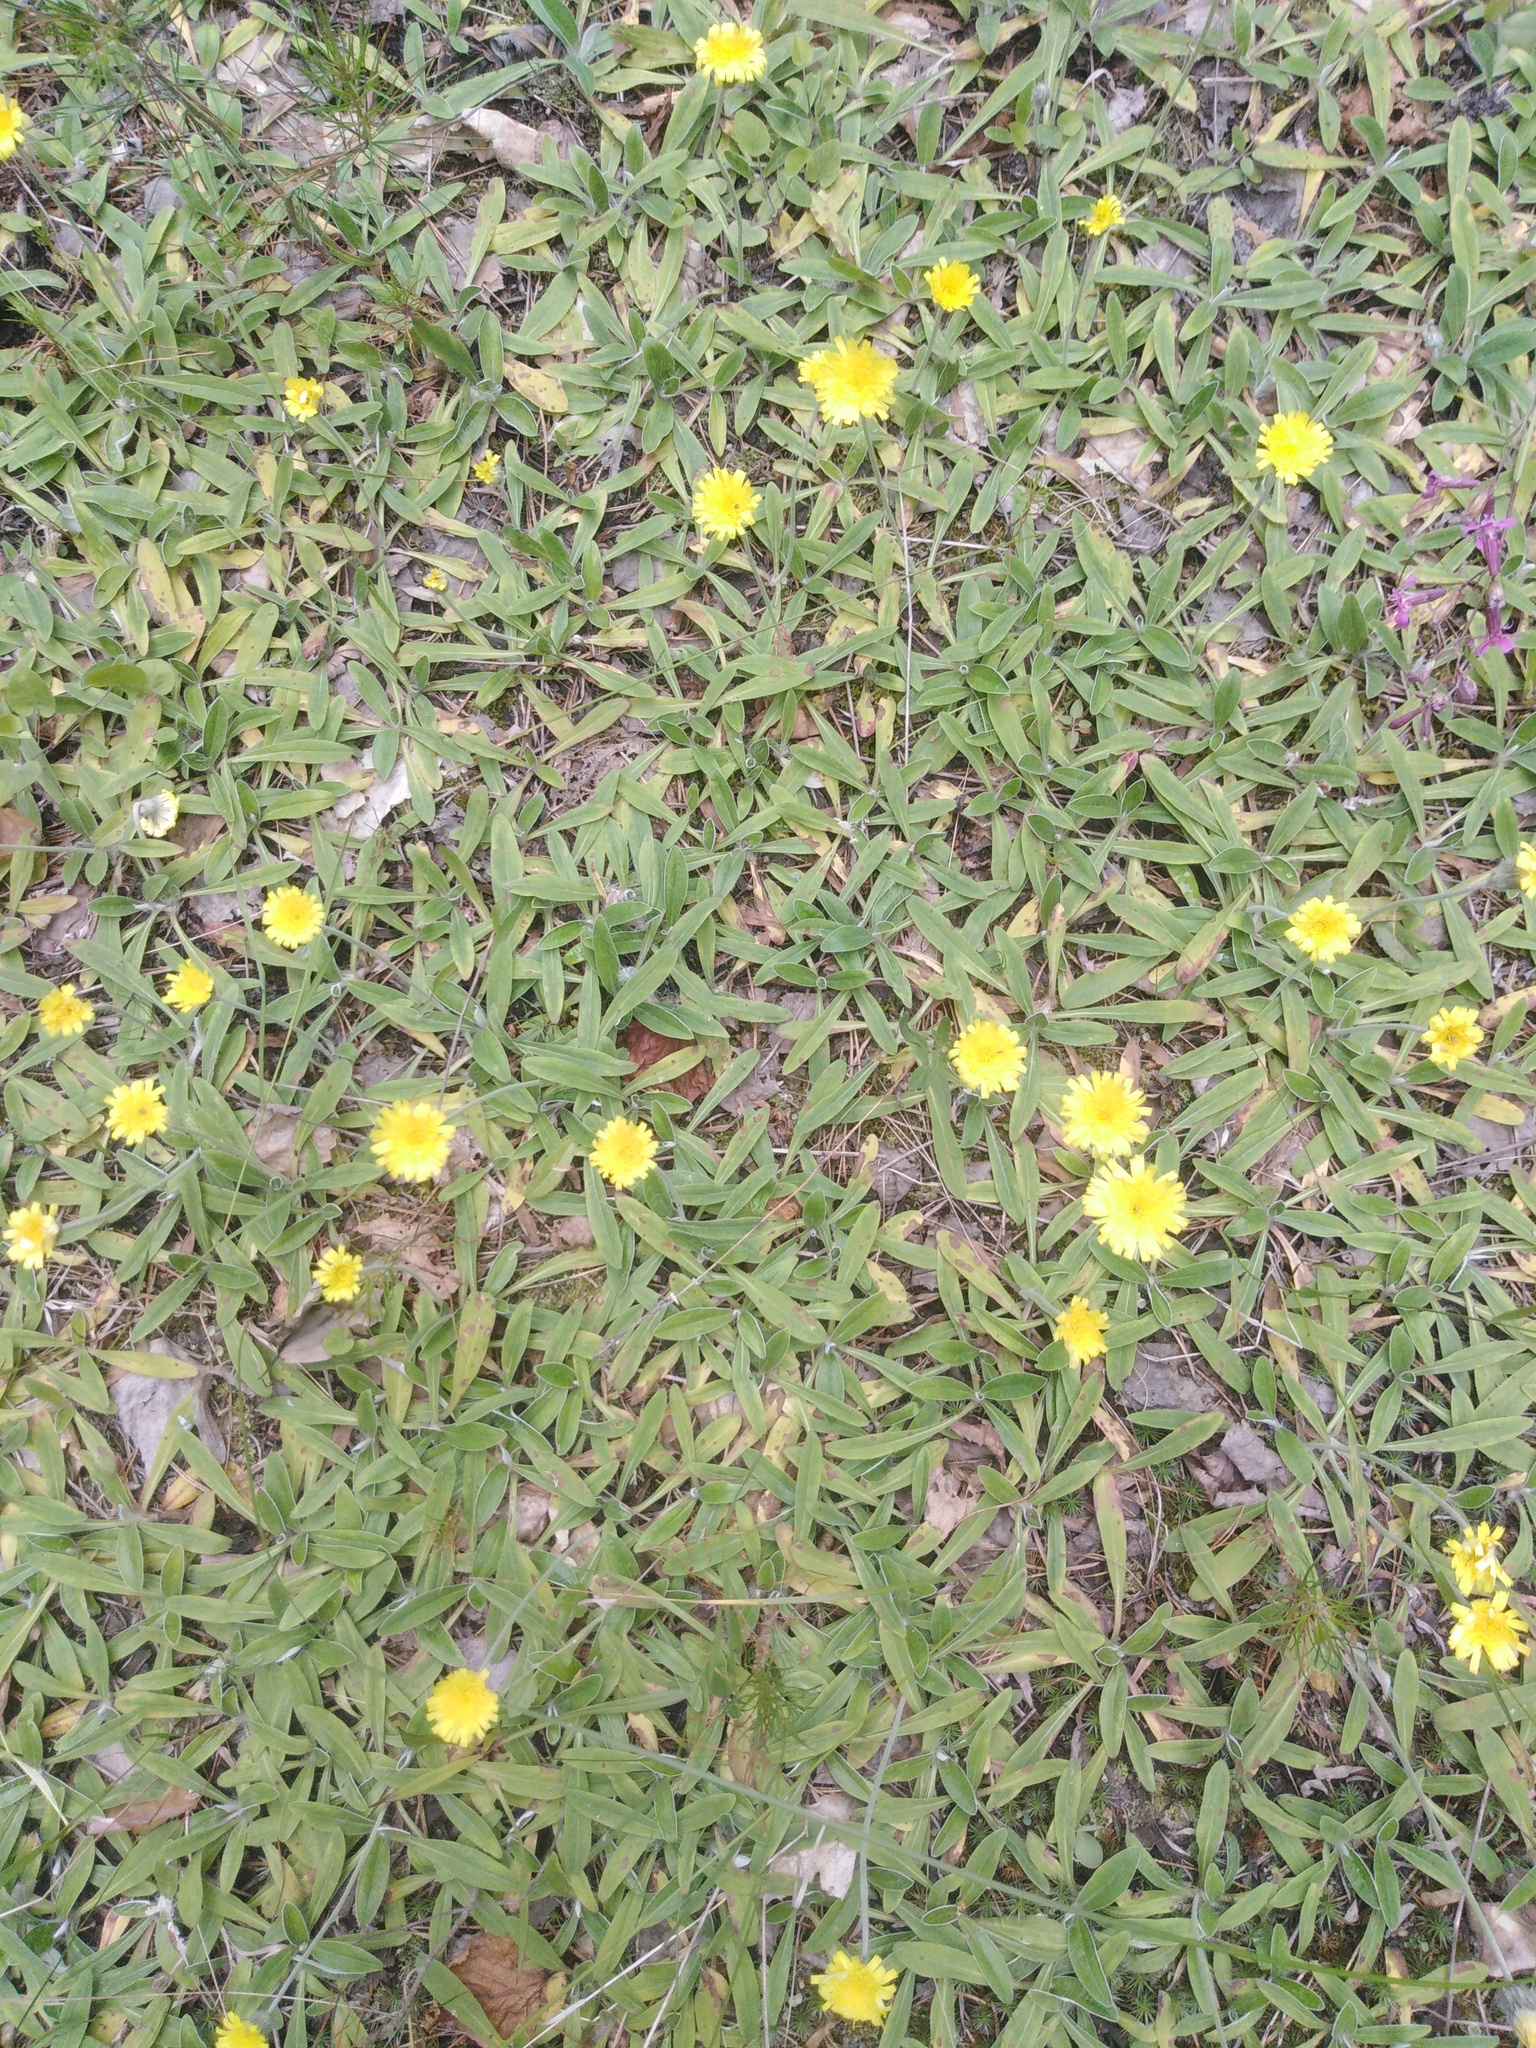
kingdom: Plantae
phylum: Tracheophyta
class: Magnoliopsida
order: Asterales
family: Asteraceae
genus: Pilosella
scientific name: Pilosella officinarum
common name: Mouse-ear hawkweed
